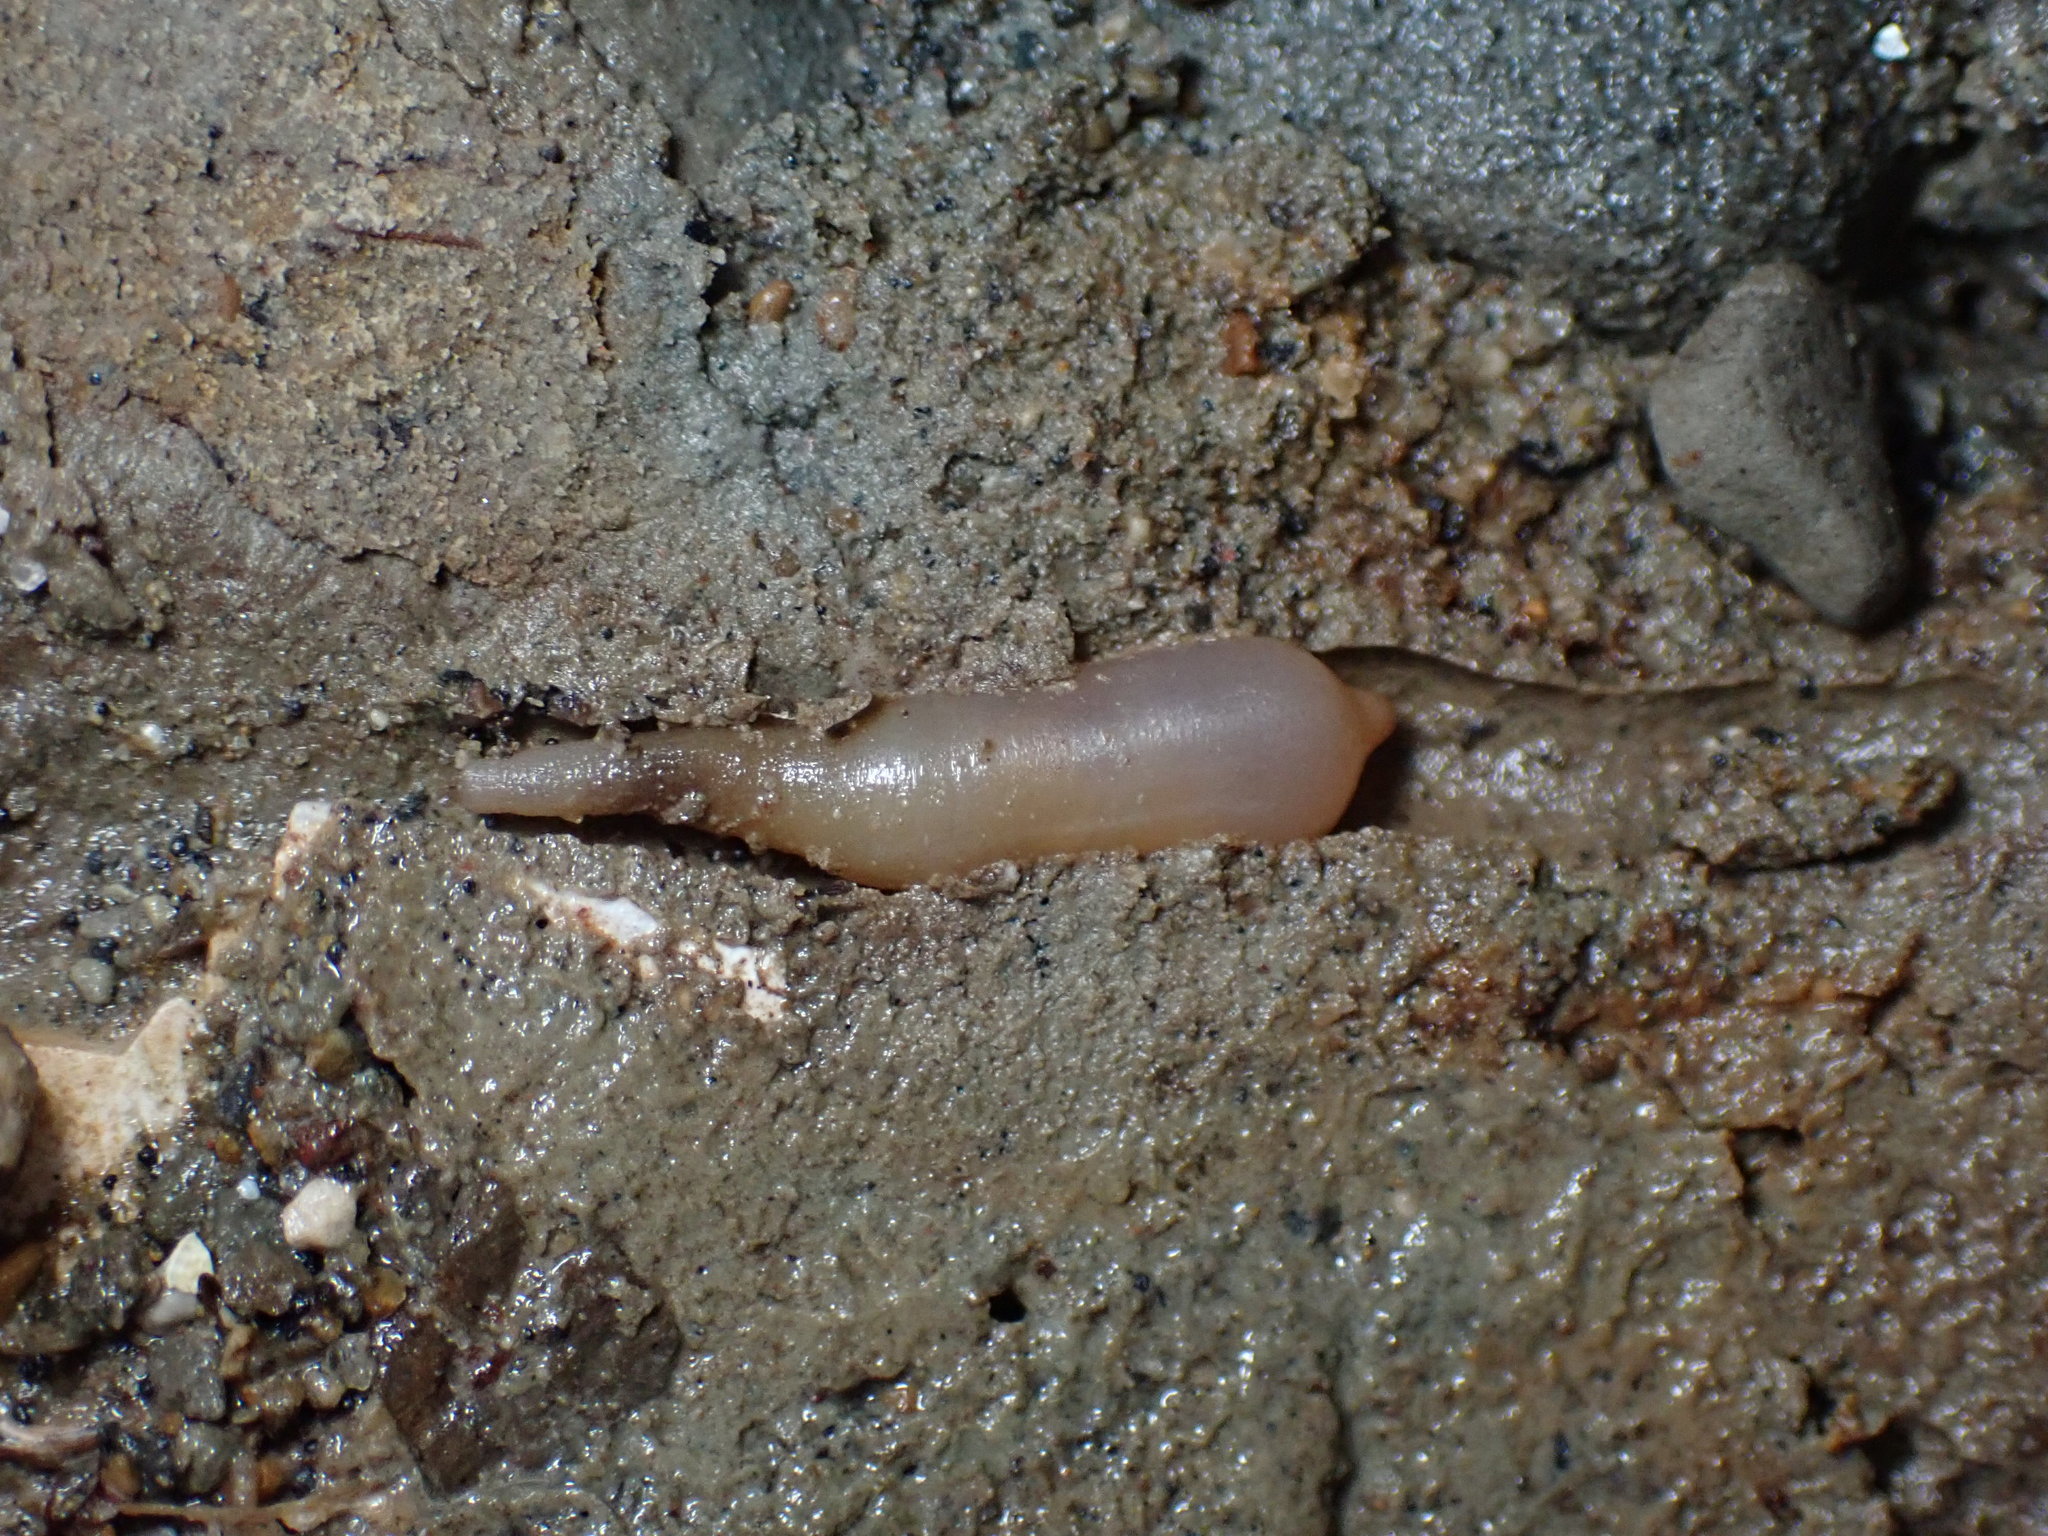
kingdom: Animalia
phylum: Sipuncula
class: Sipunculidea
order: Golfingiiformes
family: Themistidae
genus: Themiste
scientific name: Themiste minor
